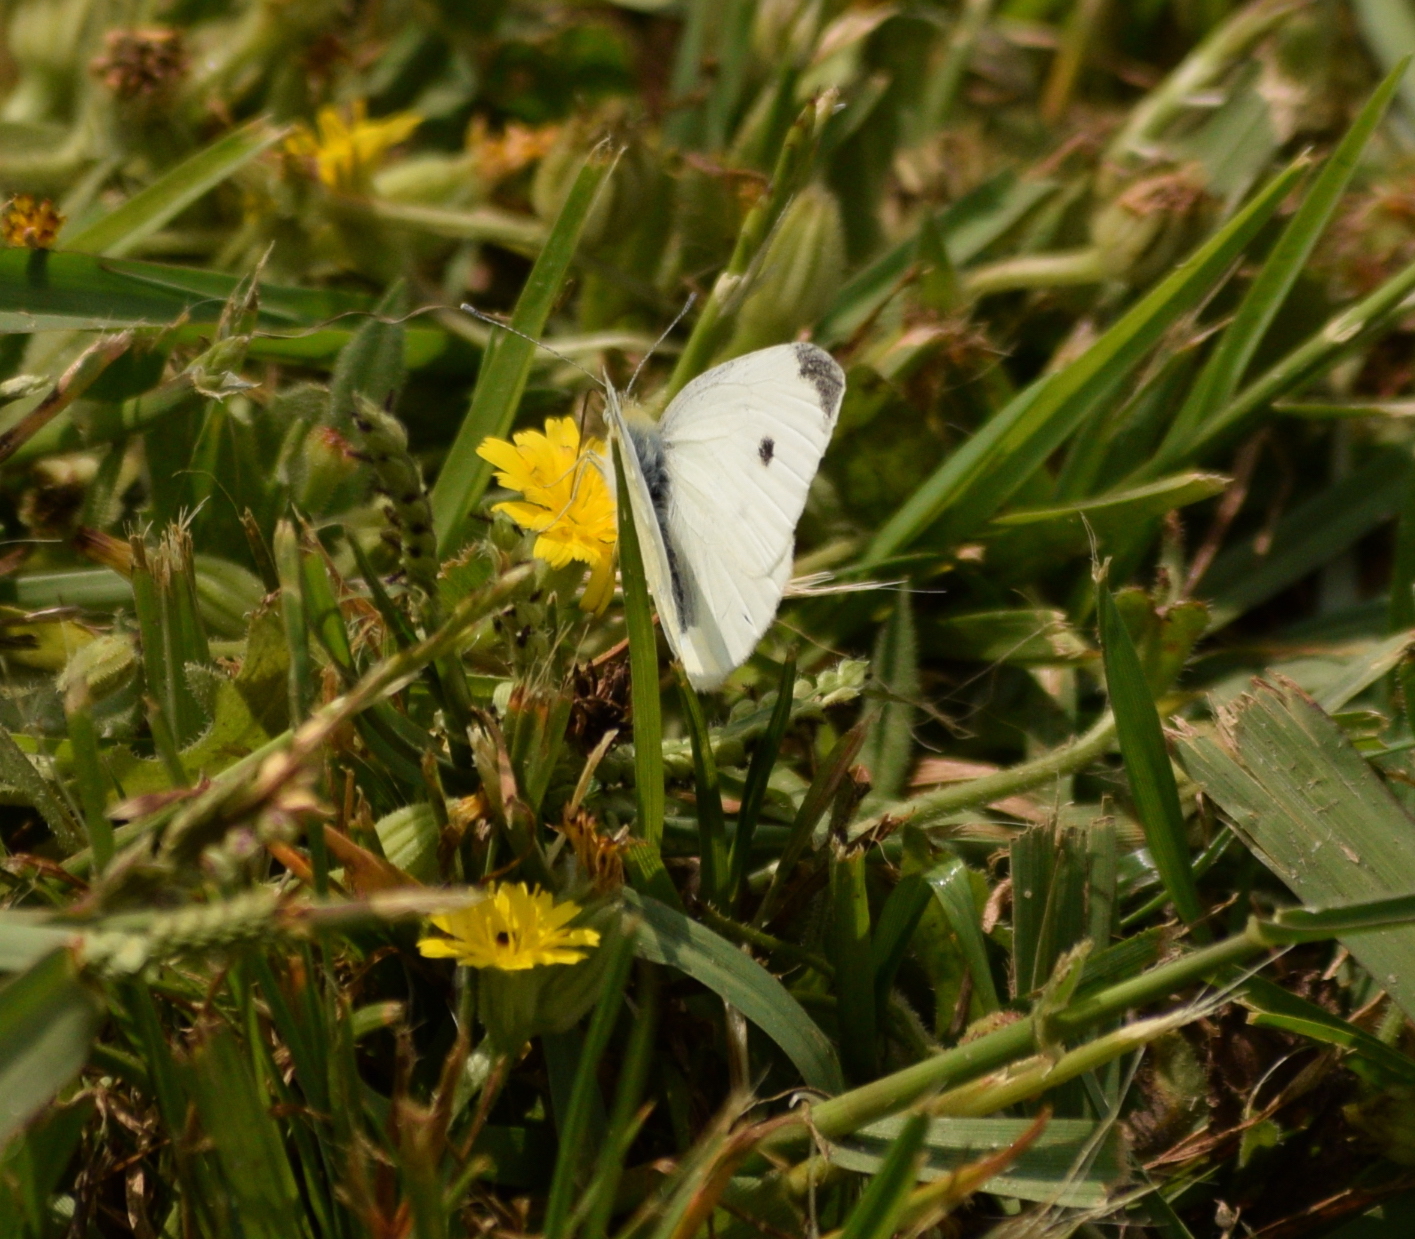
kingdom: Animalia
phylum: Arthropoda
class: Insecta
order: Lepidoptera
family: Pieridae
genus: Pieris
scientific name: Pieris rapae
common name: Small white
